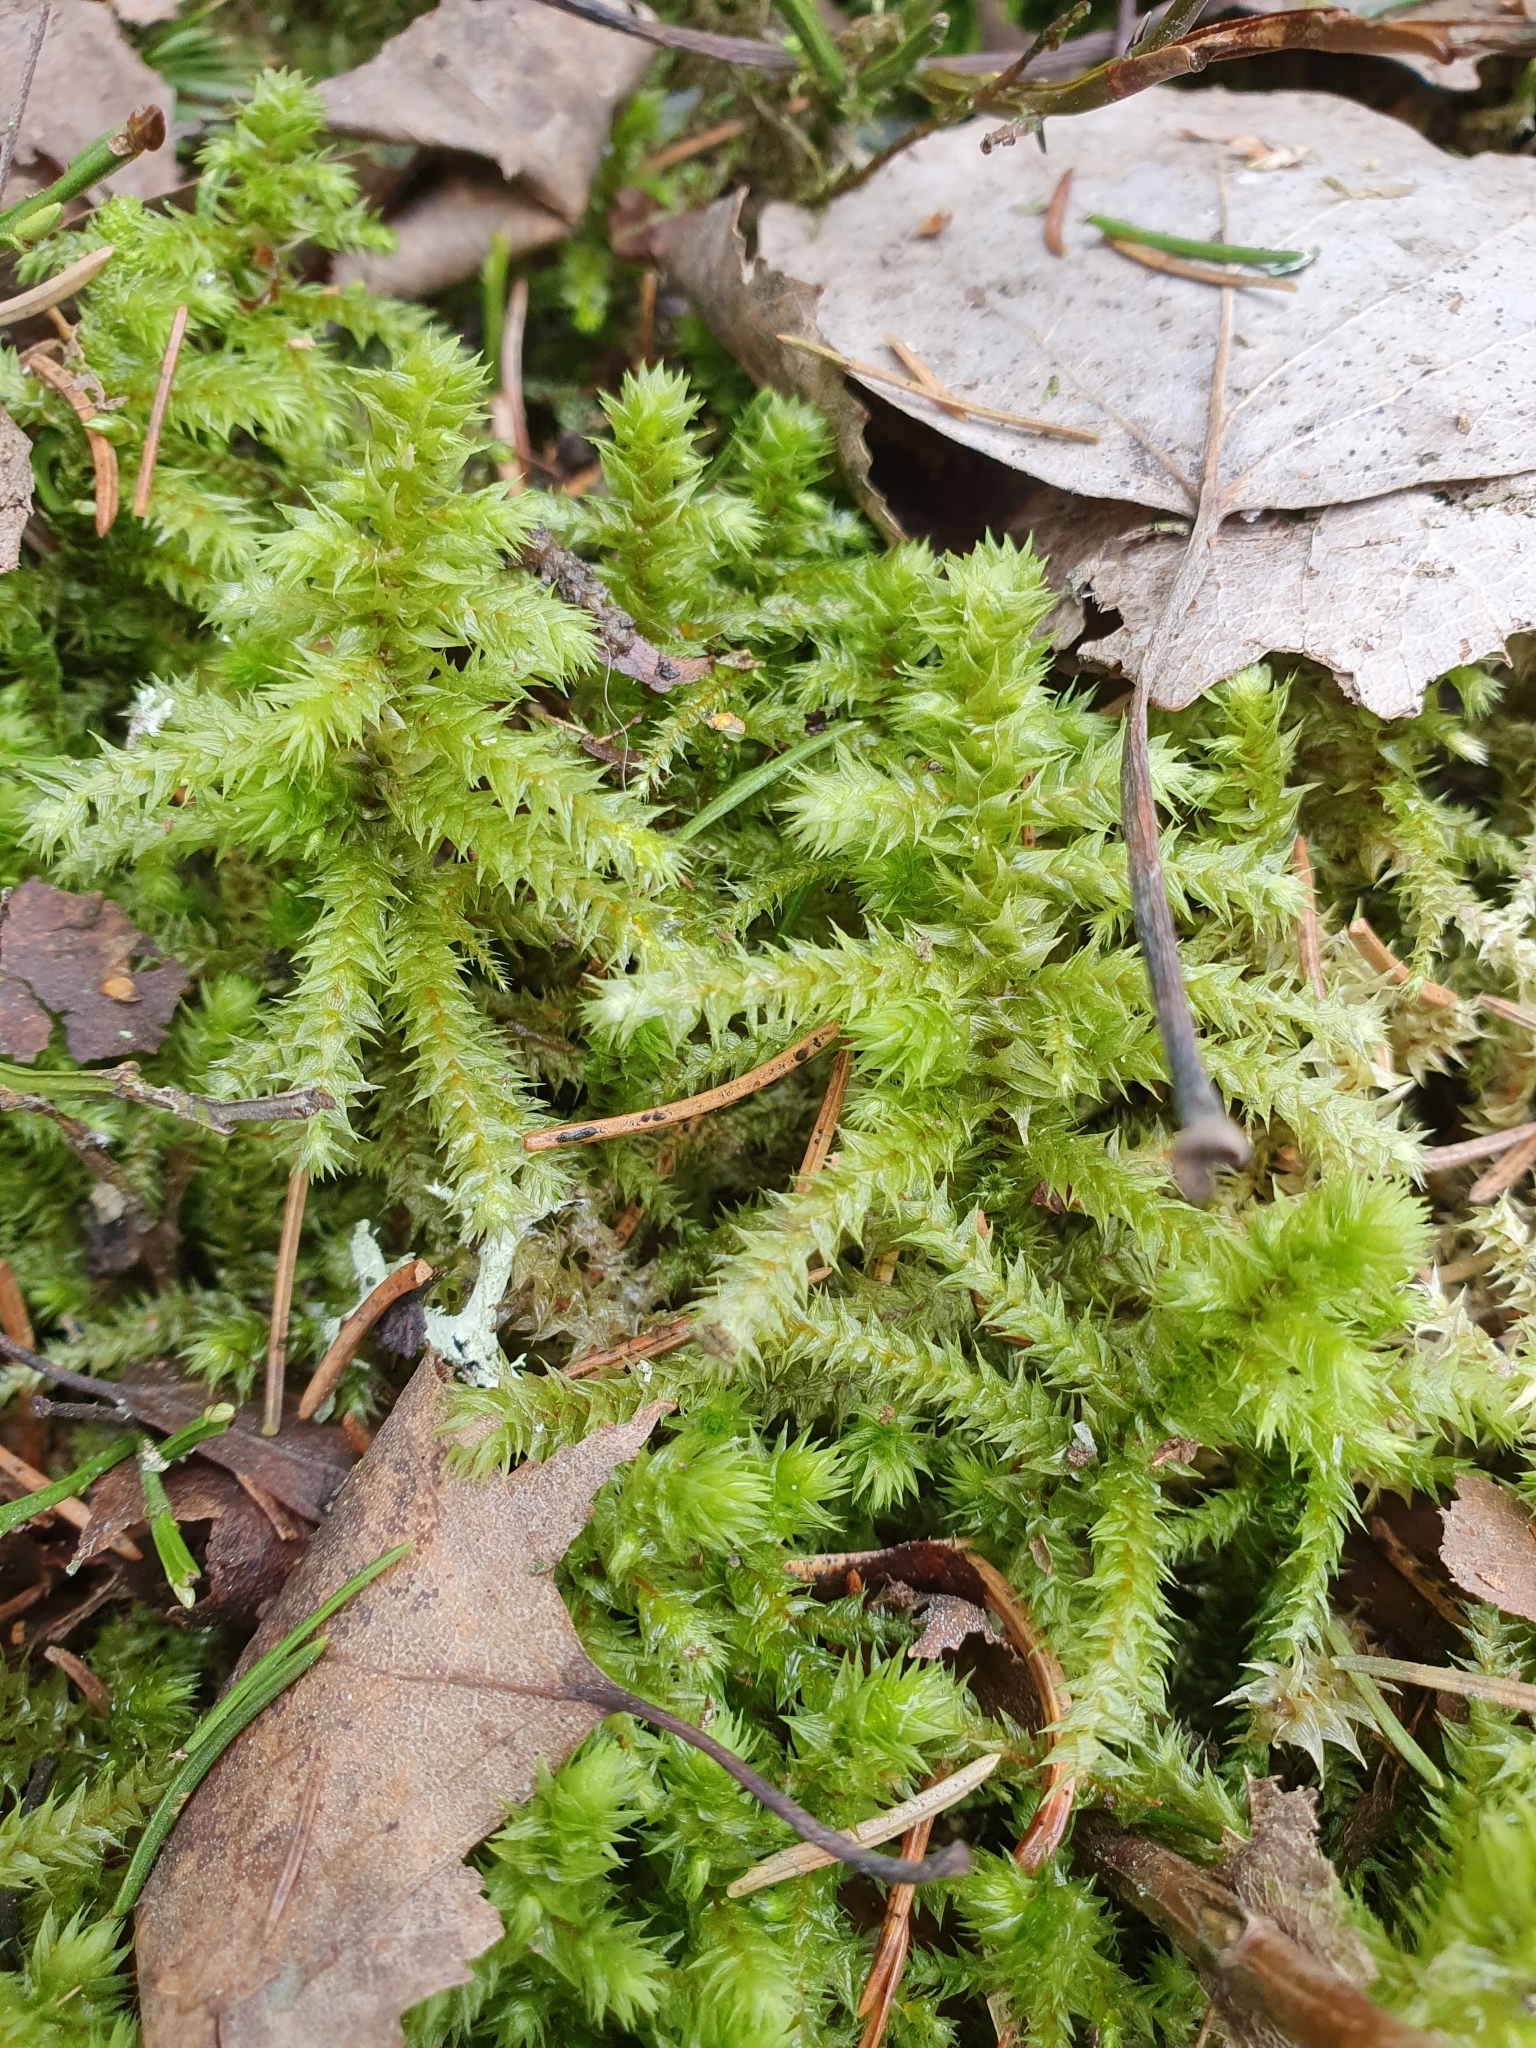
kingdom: Plantae
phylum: Bryophyta
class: Bryopsida
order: Hypnales
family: Hylocomiaceae
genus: Hylocomiadelphus
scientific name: Hylocomiadelphus triquetrus
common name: Rough goose neck moss
